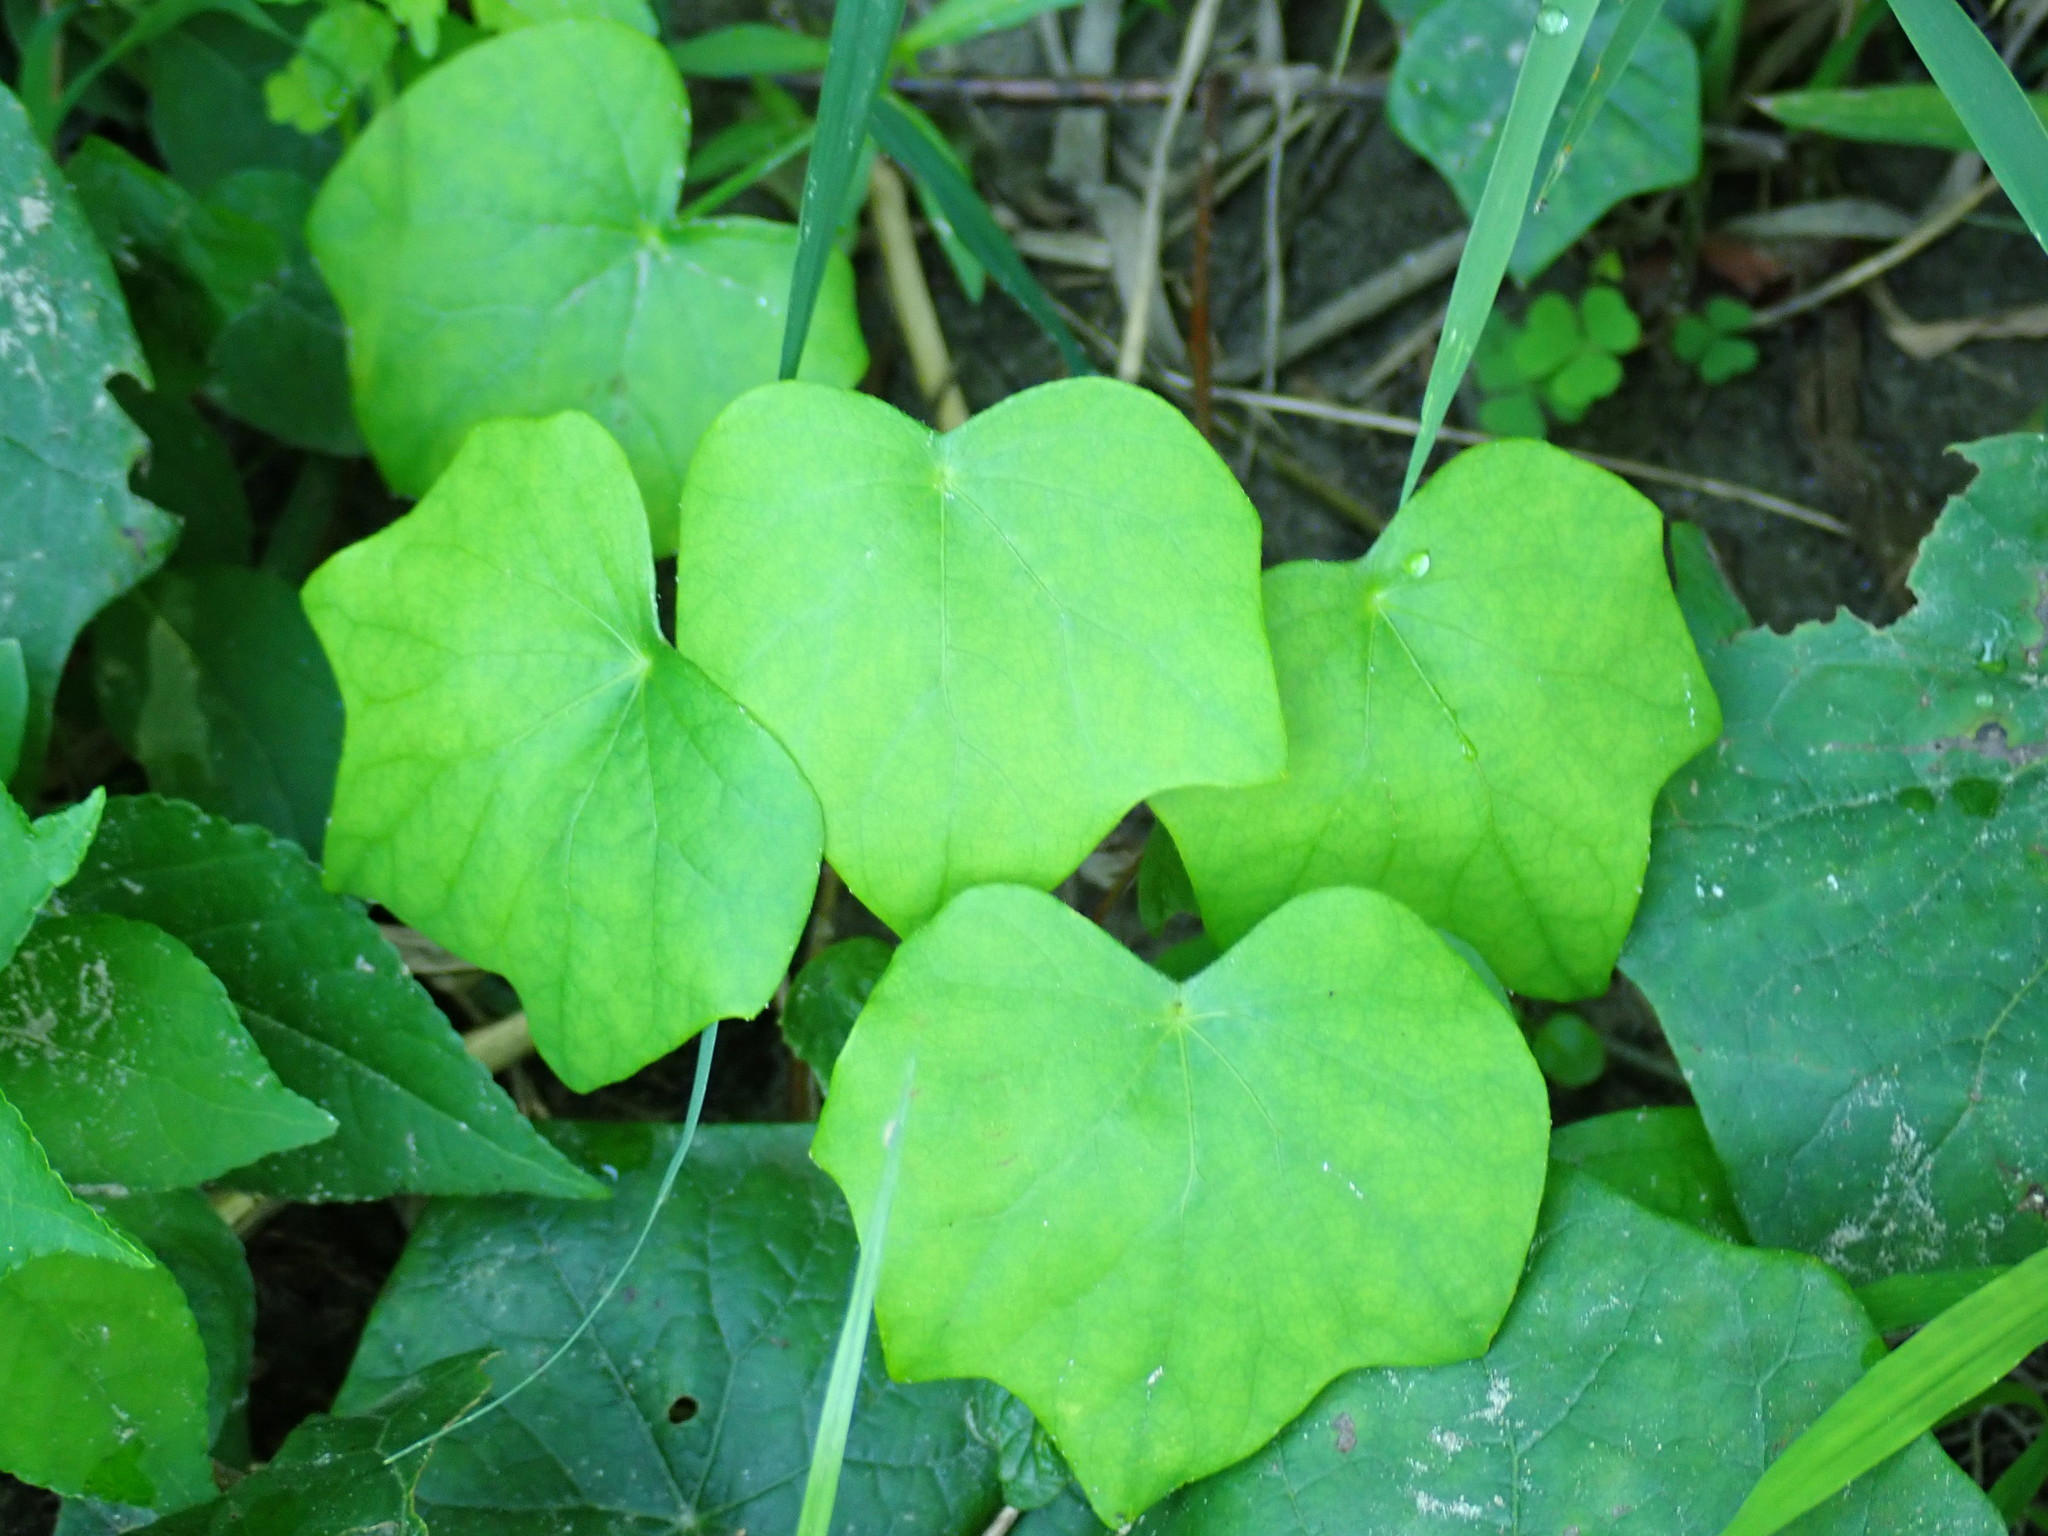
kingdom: Plantae
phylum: Tracheophyta
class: Magnoliopsida
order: Ranunculales
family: Menispermaceae
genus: Menispermum
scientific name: Menispermum canadense
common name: Moonseed
